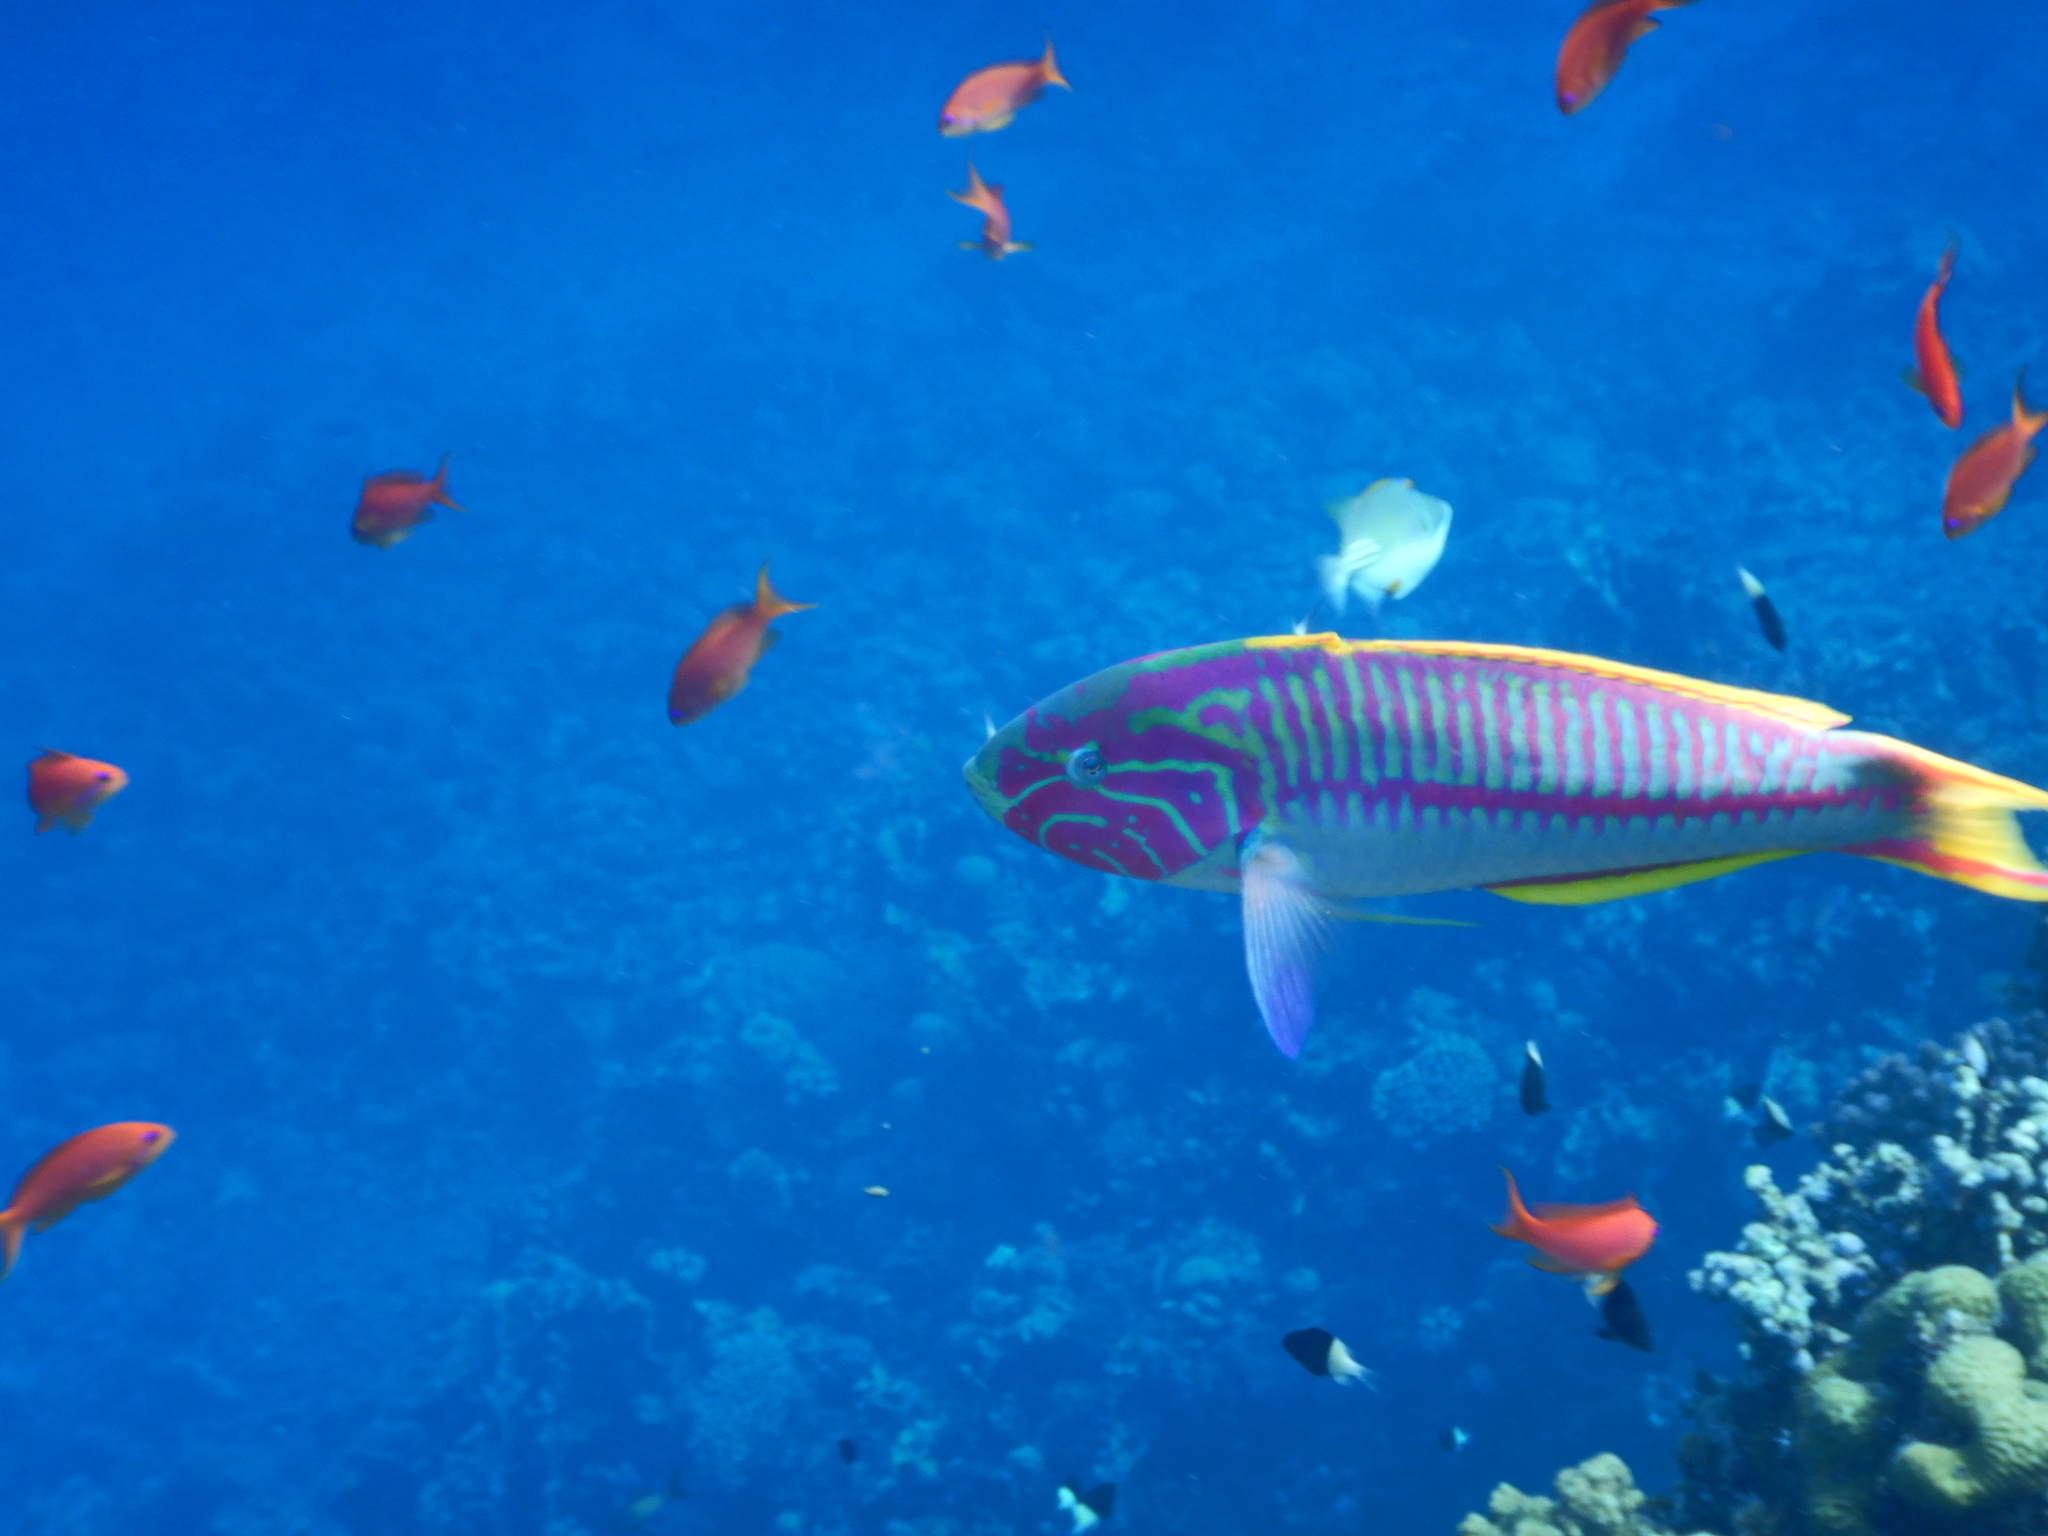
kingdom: Animalia
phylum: Chordata
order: Perciformes
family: Labridae
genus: Thalassoma
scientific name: Thalassoma rueppellii
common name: Klunzinger's wrasse
